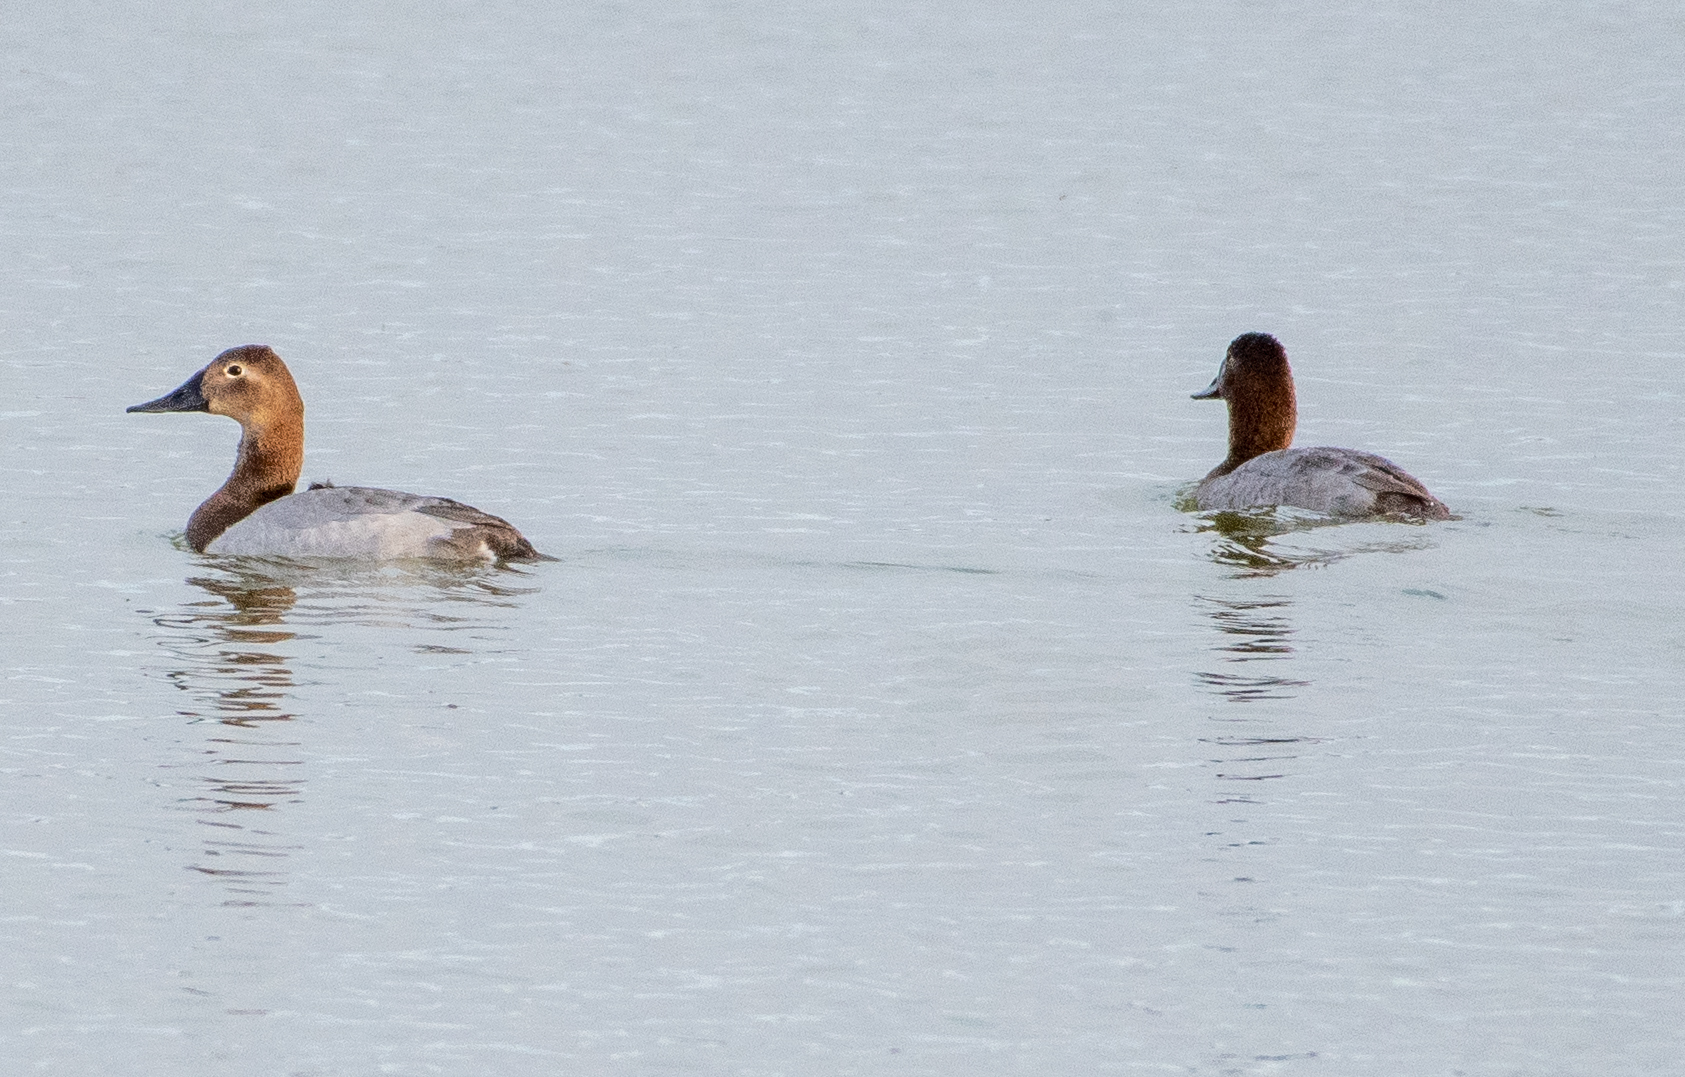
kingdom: Animalia
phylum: Chordata
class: Aves
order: Anseriformes
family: Anatidae
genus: Aythya
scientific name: Aythya valisineria
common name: Canvasback
